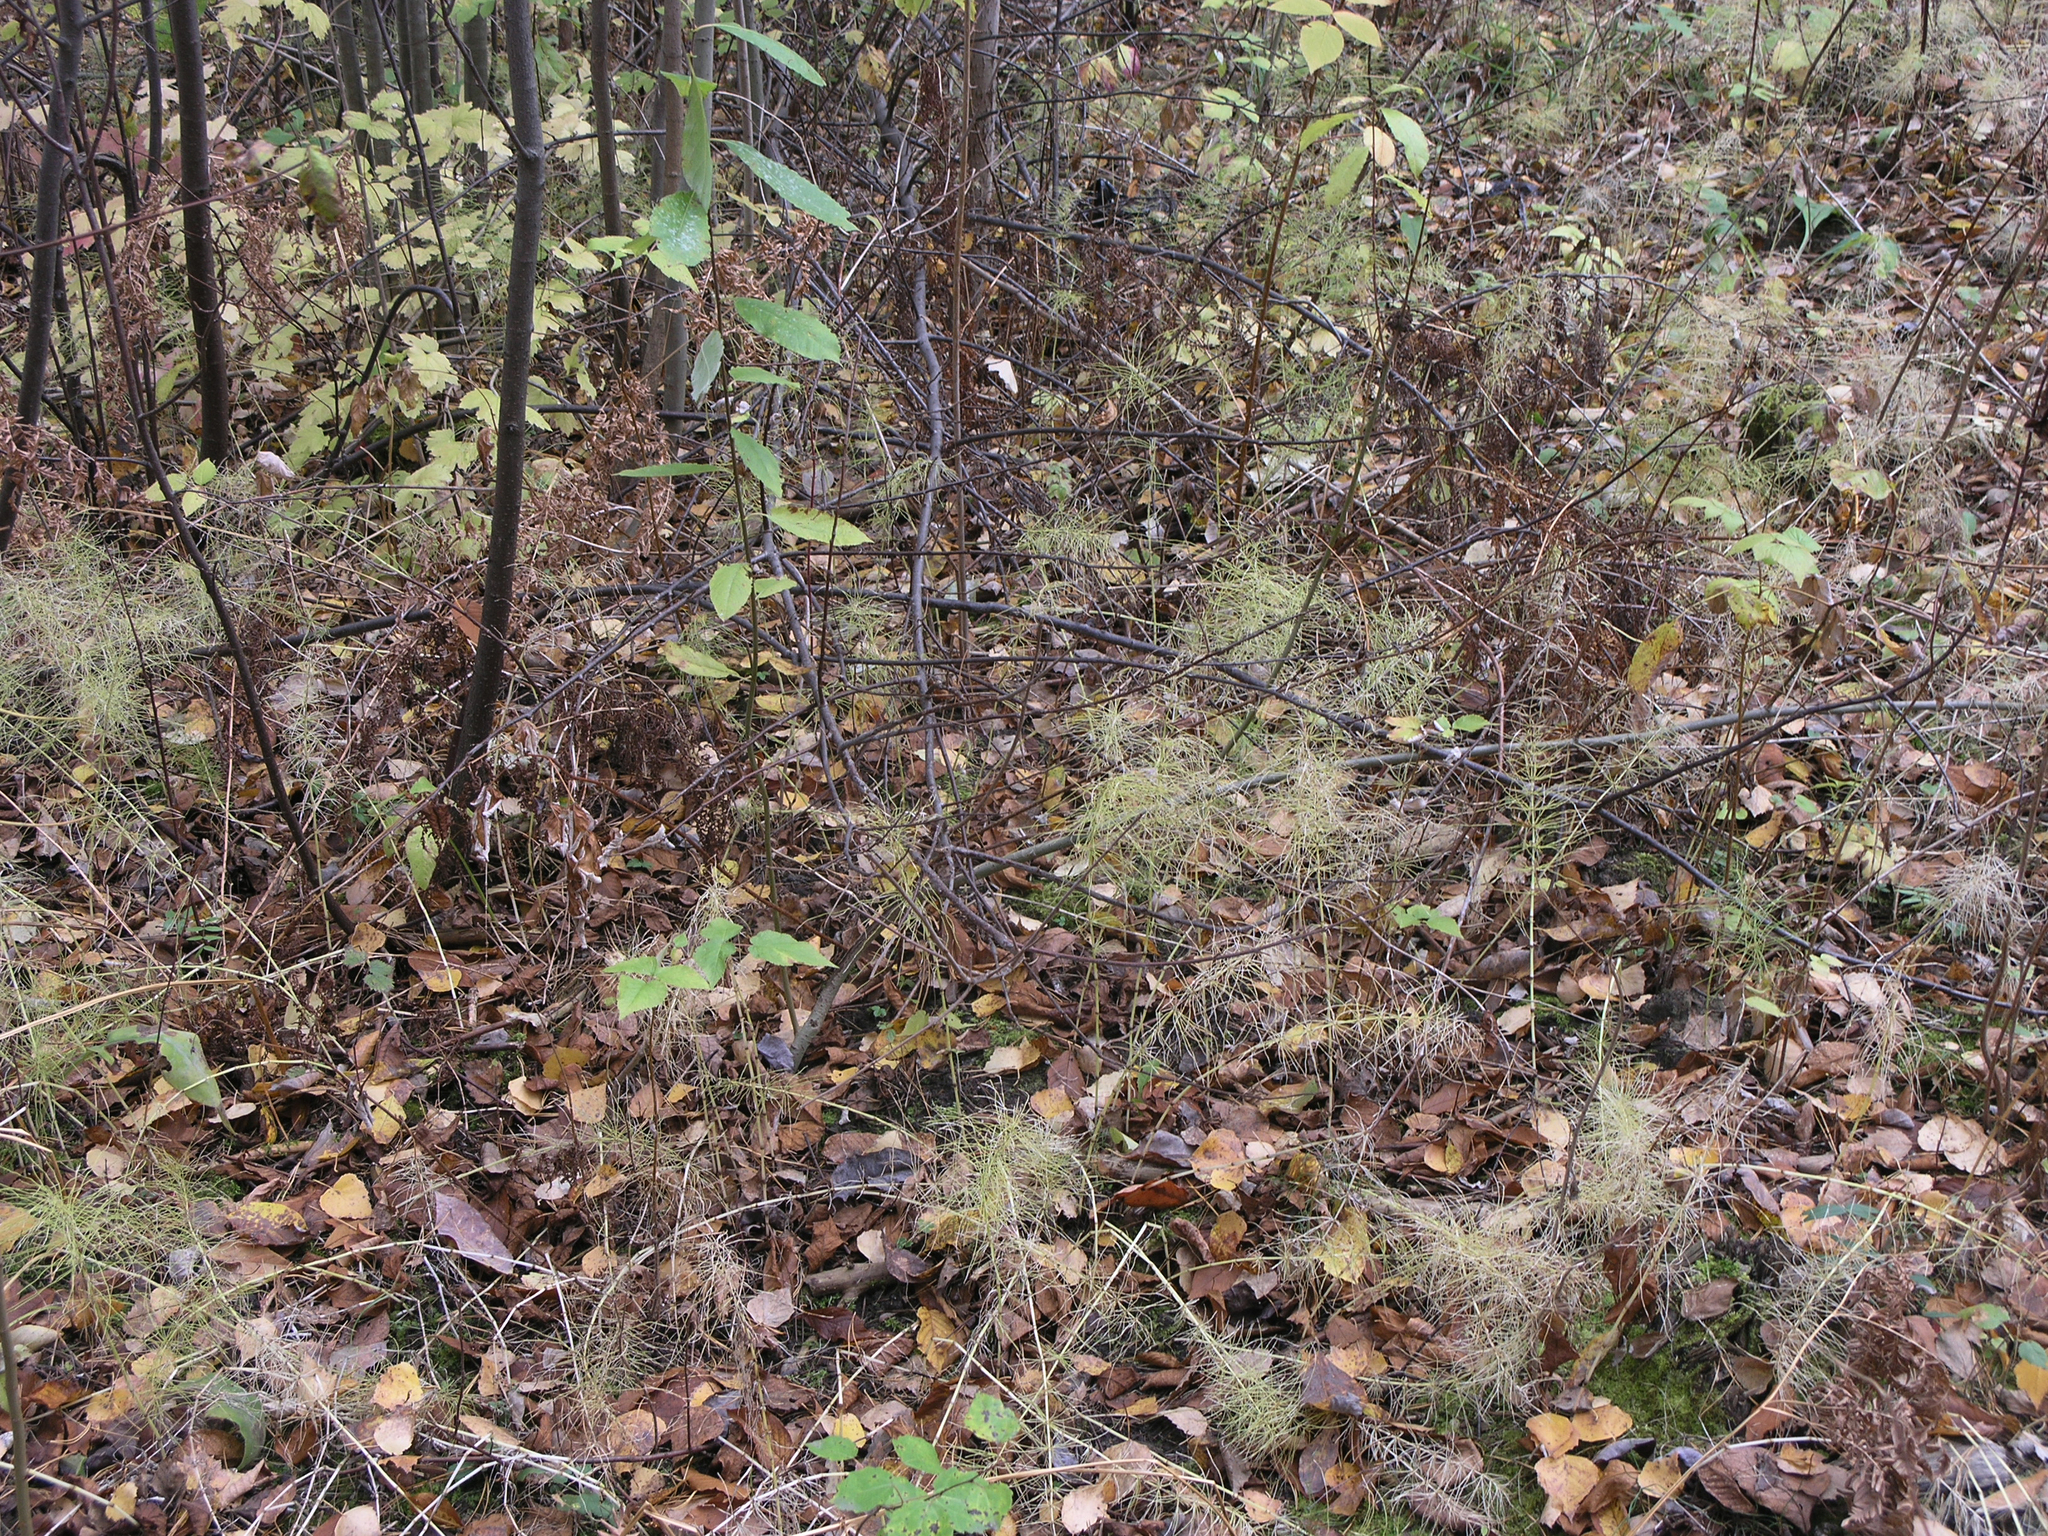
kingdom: Plantae
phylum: Tracheophyta
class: Polypodiopsida
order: Equisetales
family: Equisetaceae
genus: Equisetum
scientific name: Equisetum pratense
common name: Meadow horsetail
